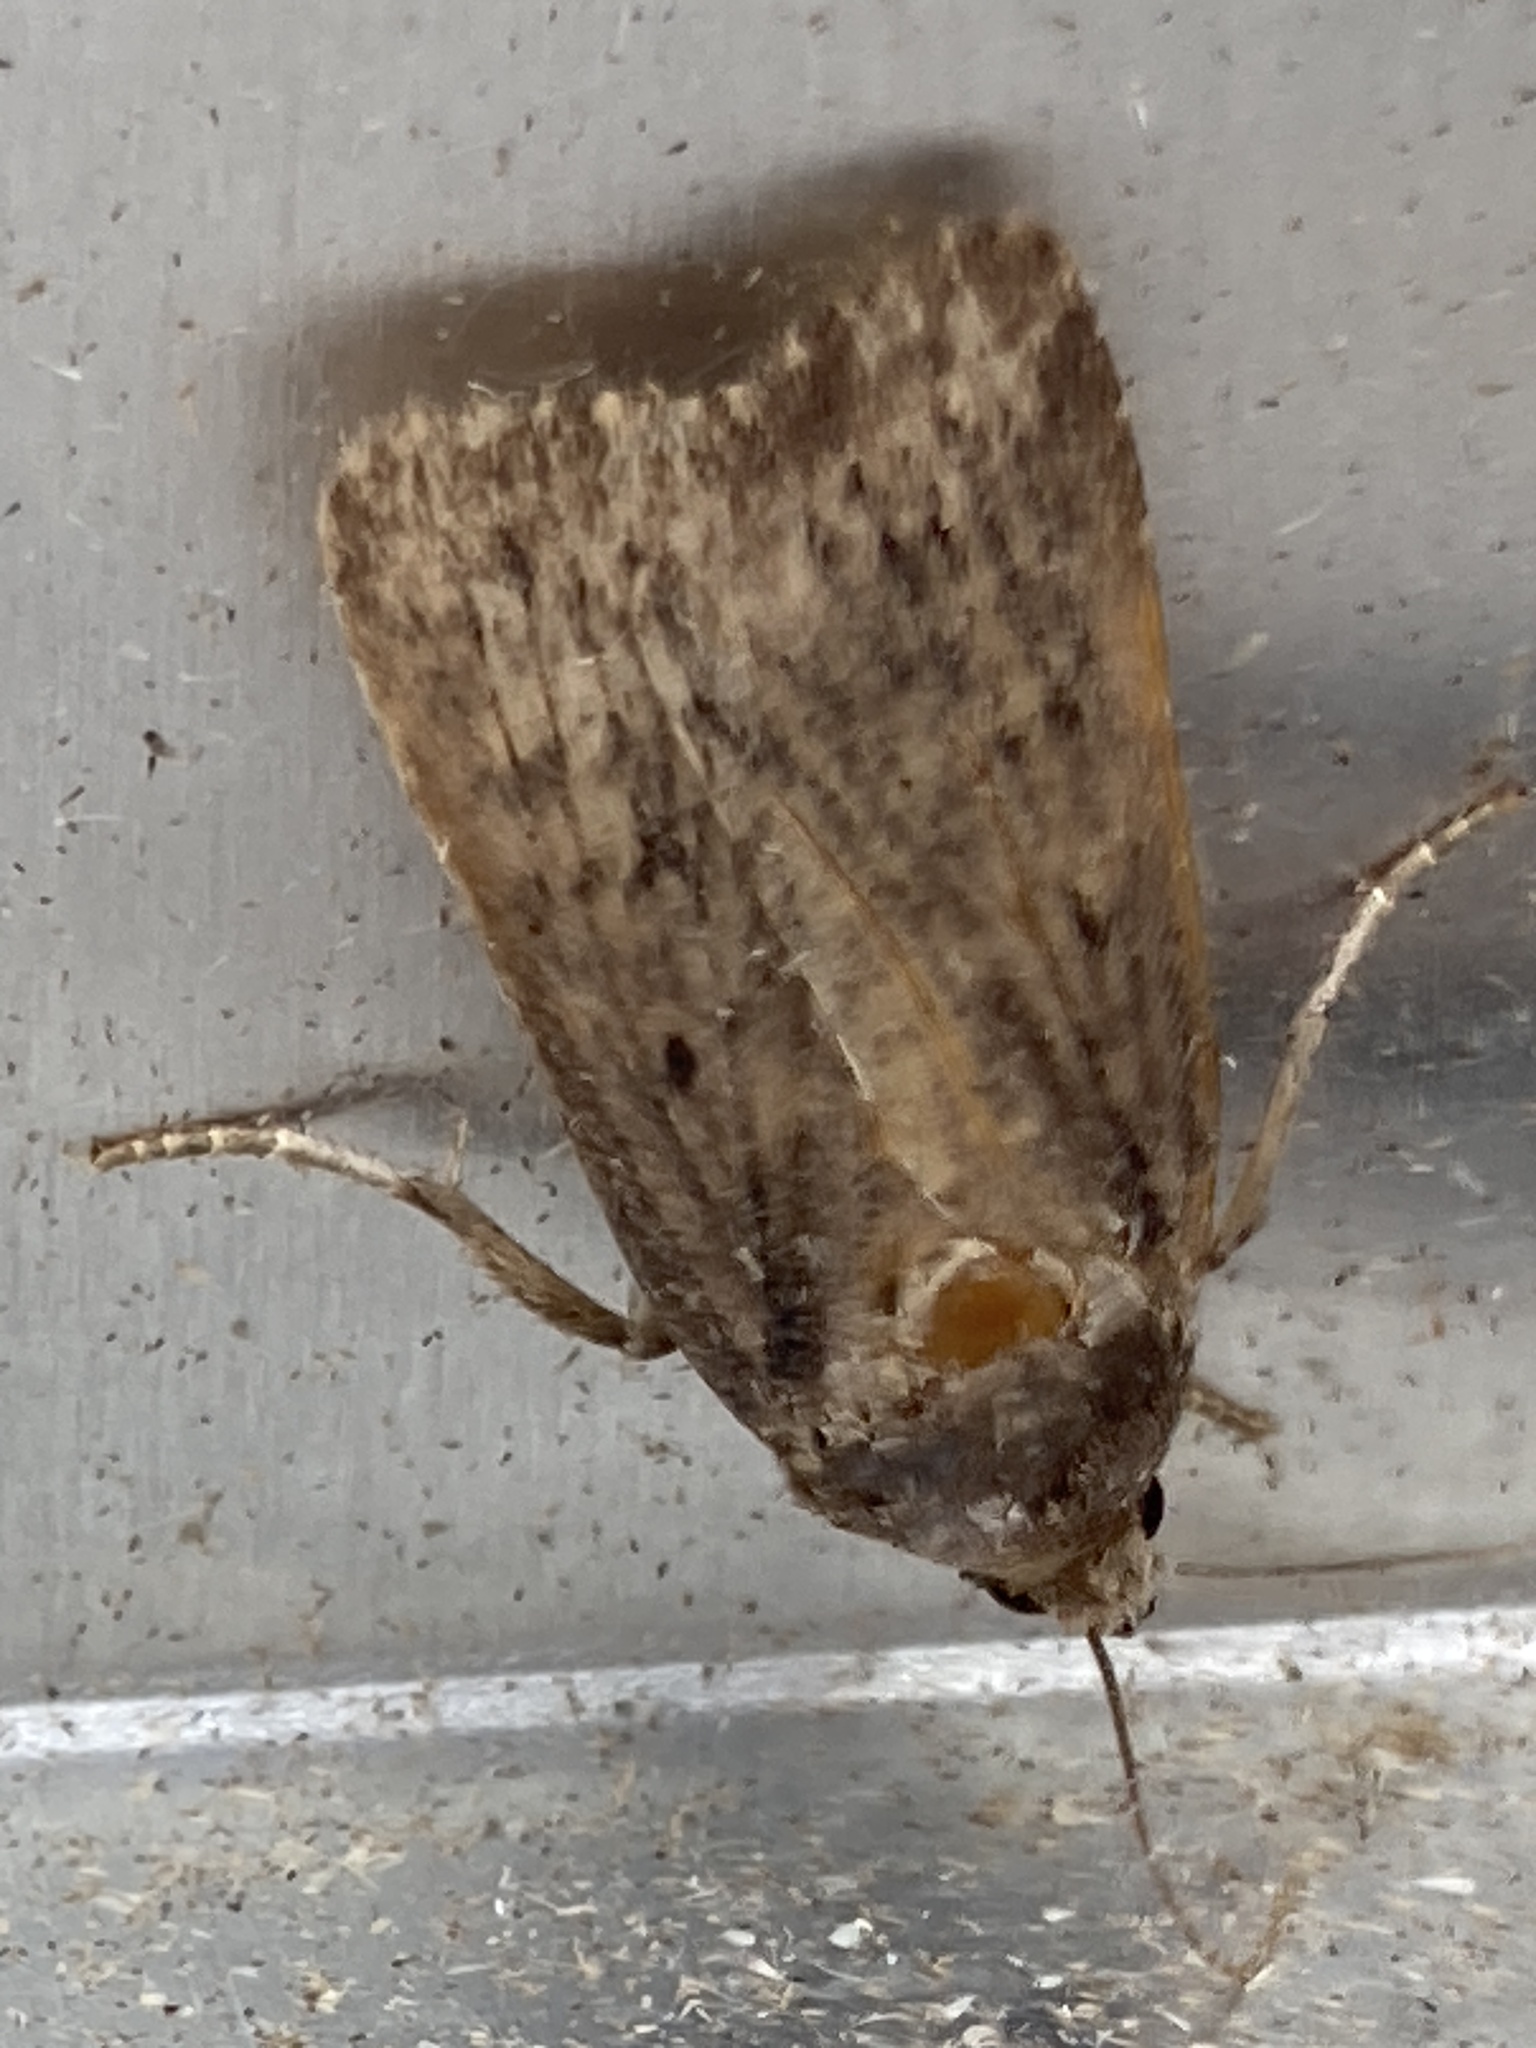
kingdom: Animalia
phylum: Arthropoda
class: Insecta
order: Lepidoptera
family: Noctuidae
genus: Amphipyra
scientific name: Amphipyra tragopoginis
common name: Mouse moth
